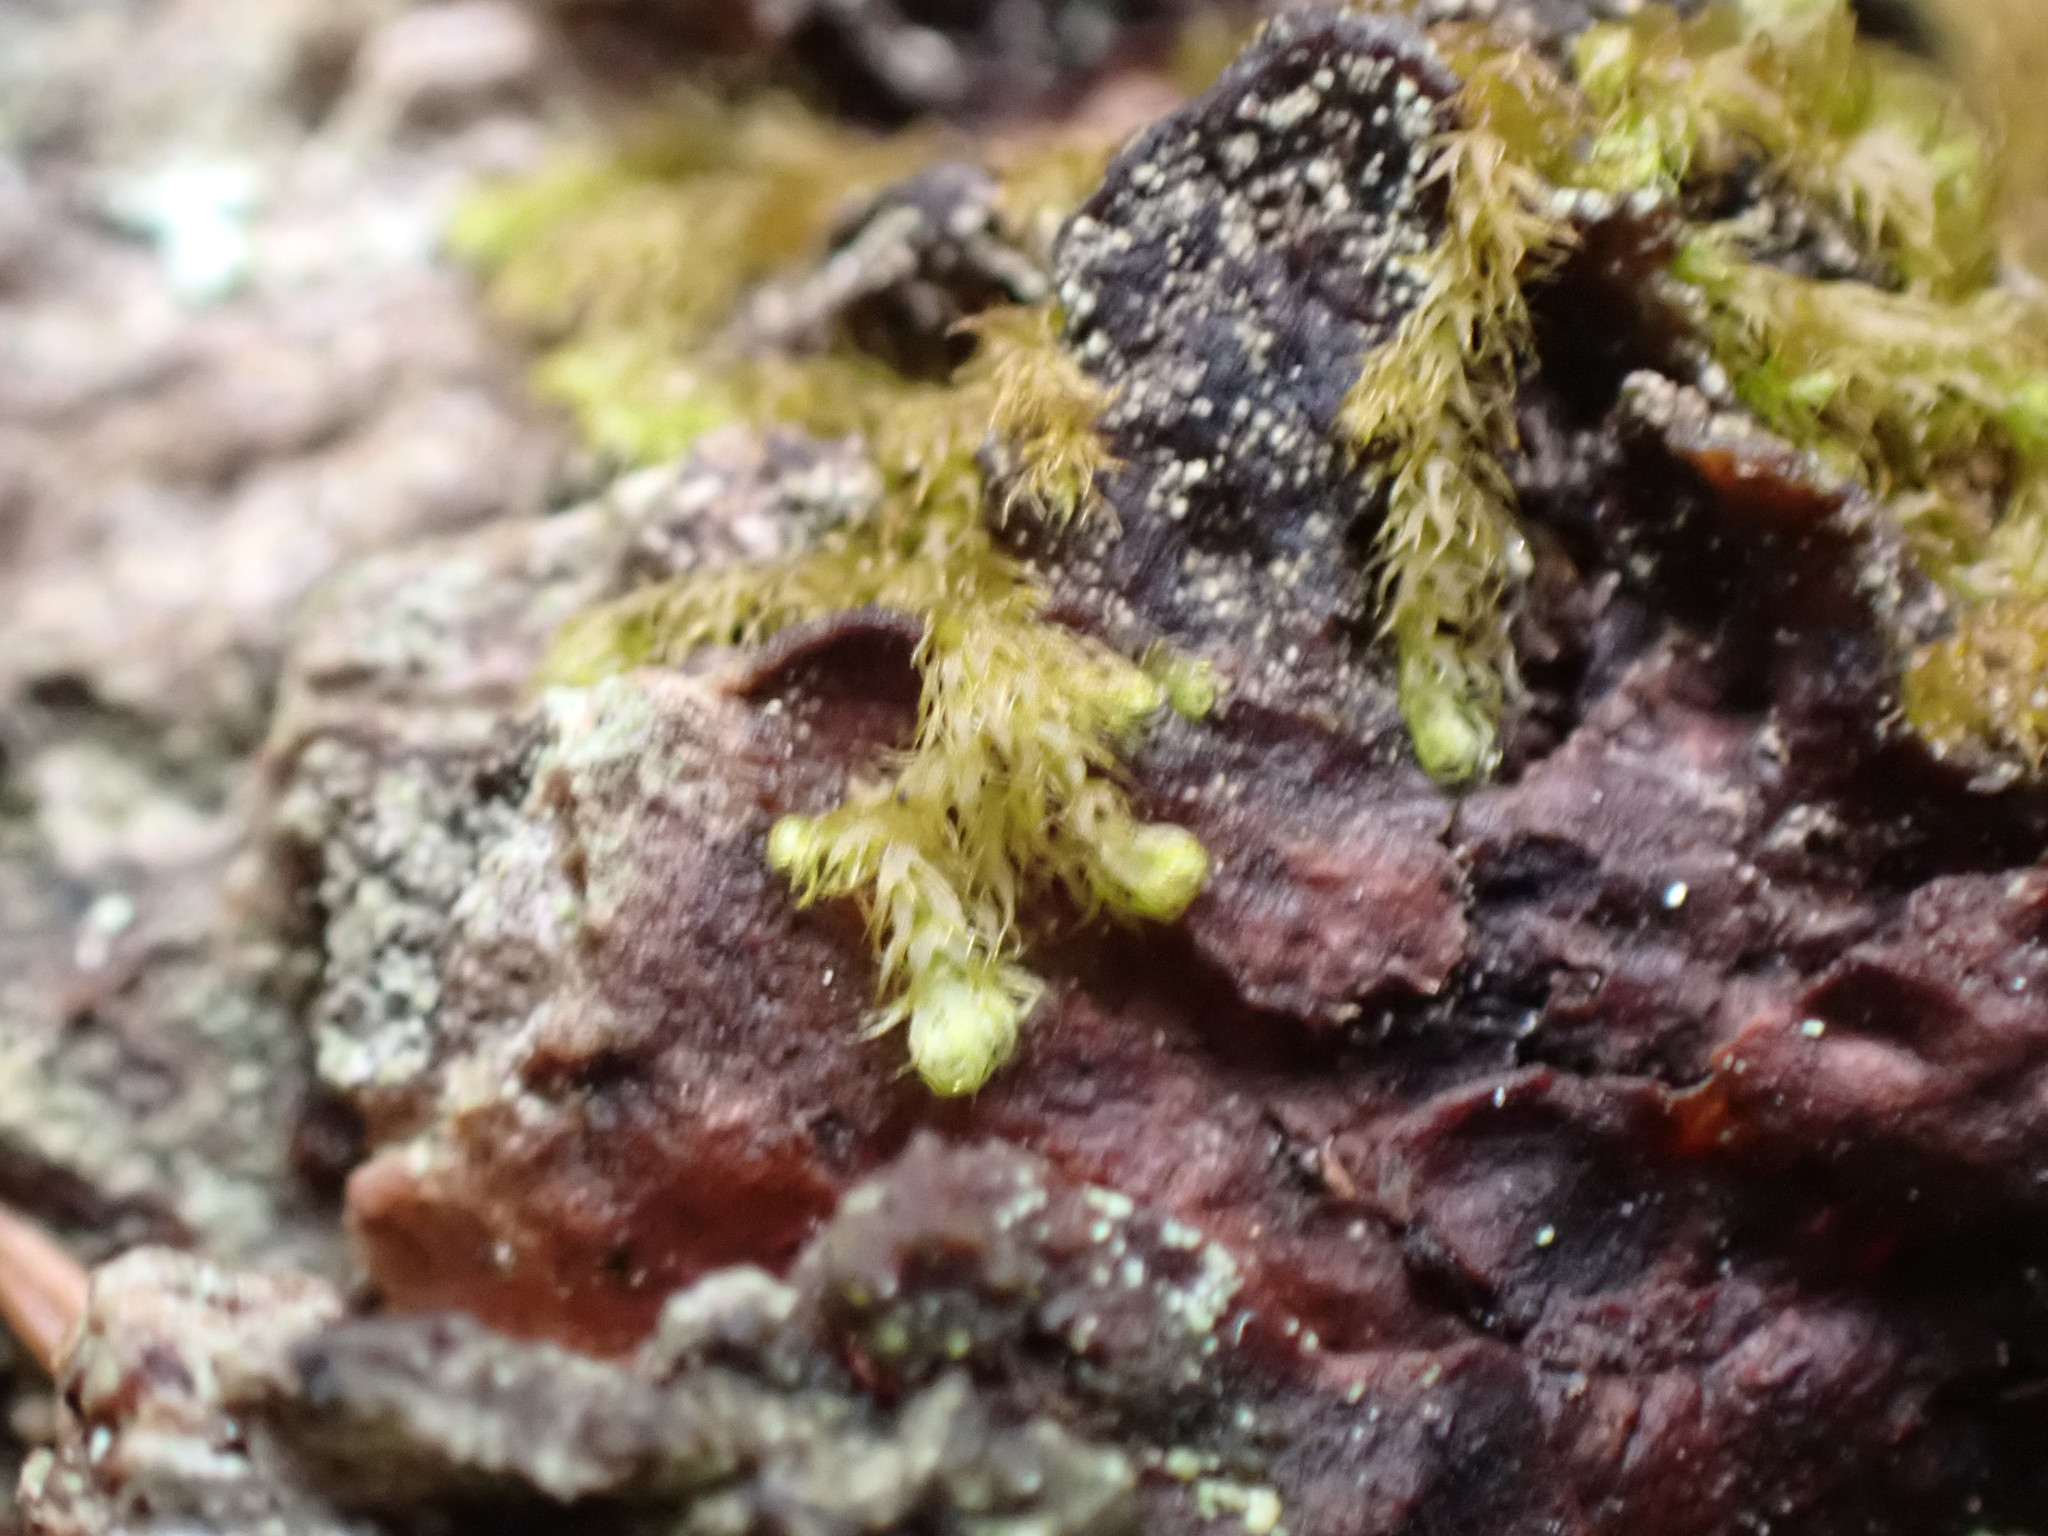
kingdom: Plantae
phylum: Marchantiophyta
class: Jungermanniopsida
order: Ptilidiales
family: Ptilidiaceae
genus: Ptilidium
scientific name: Ptilidium californicum
